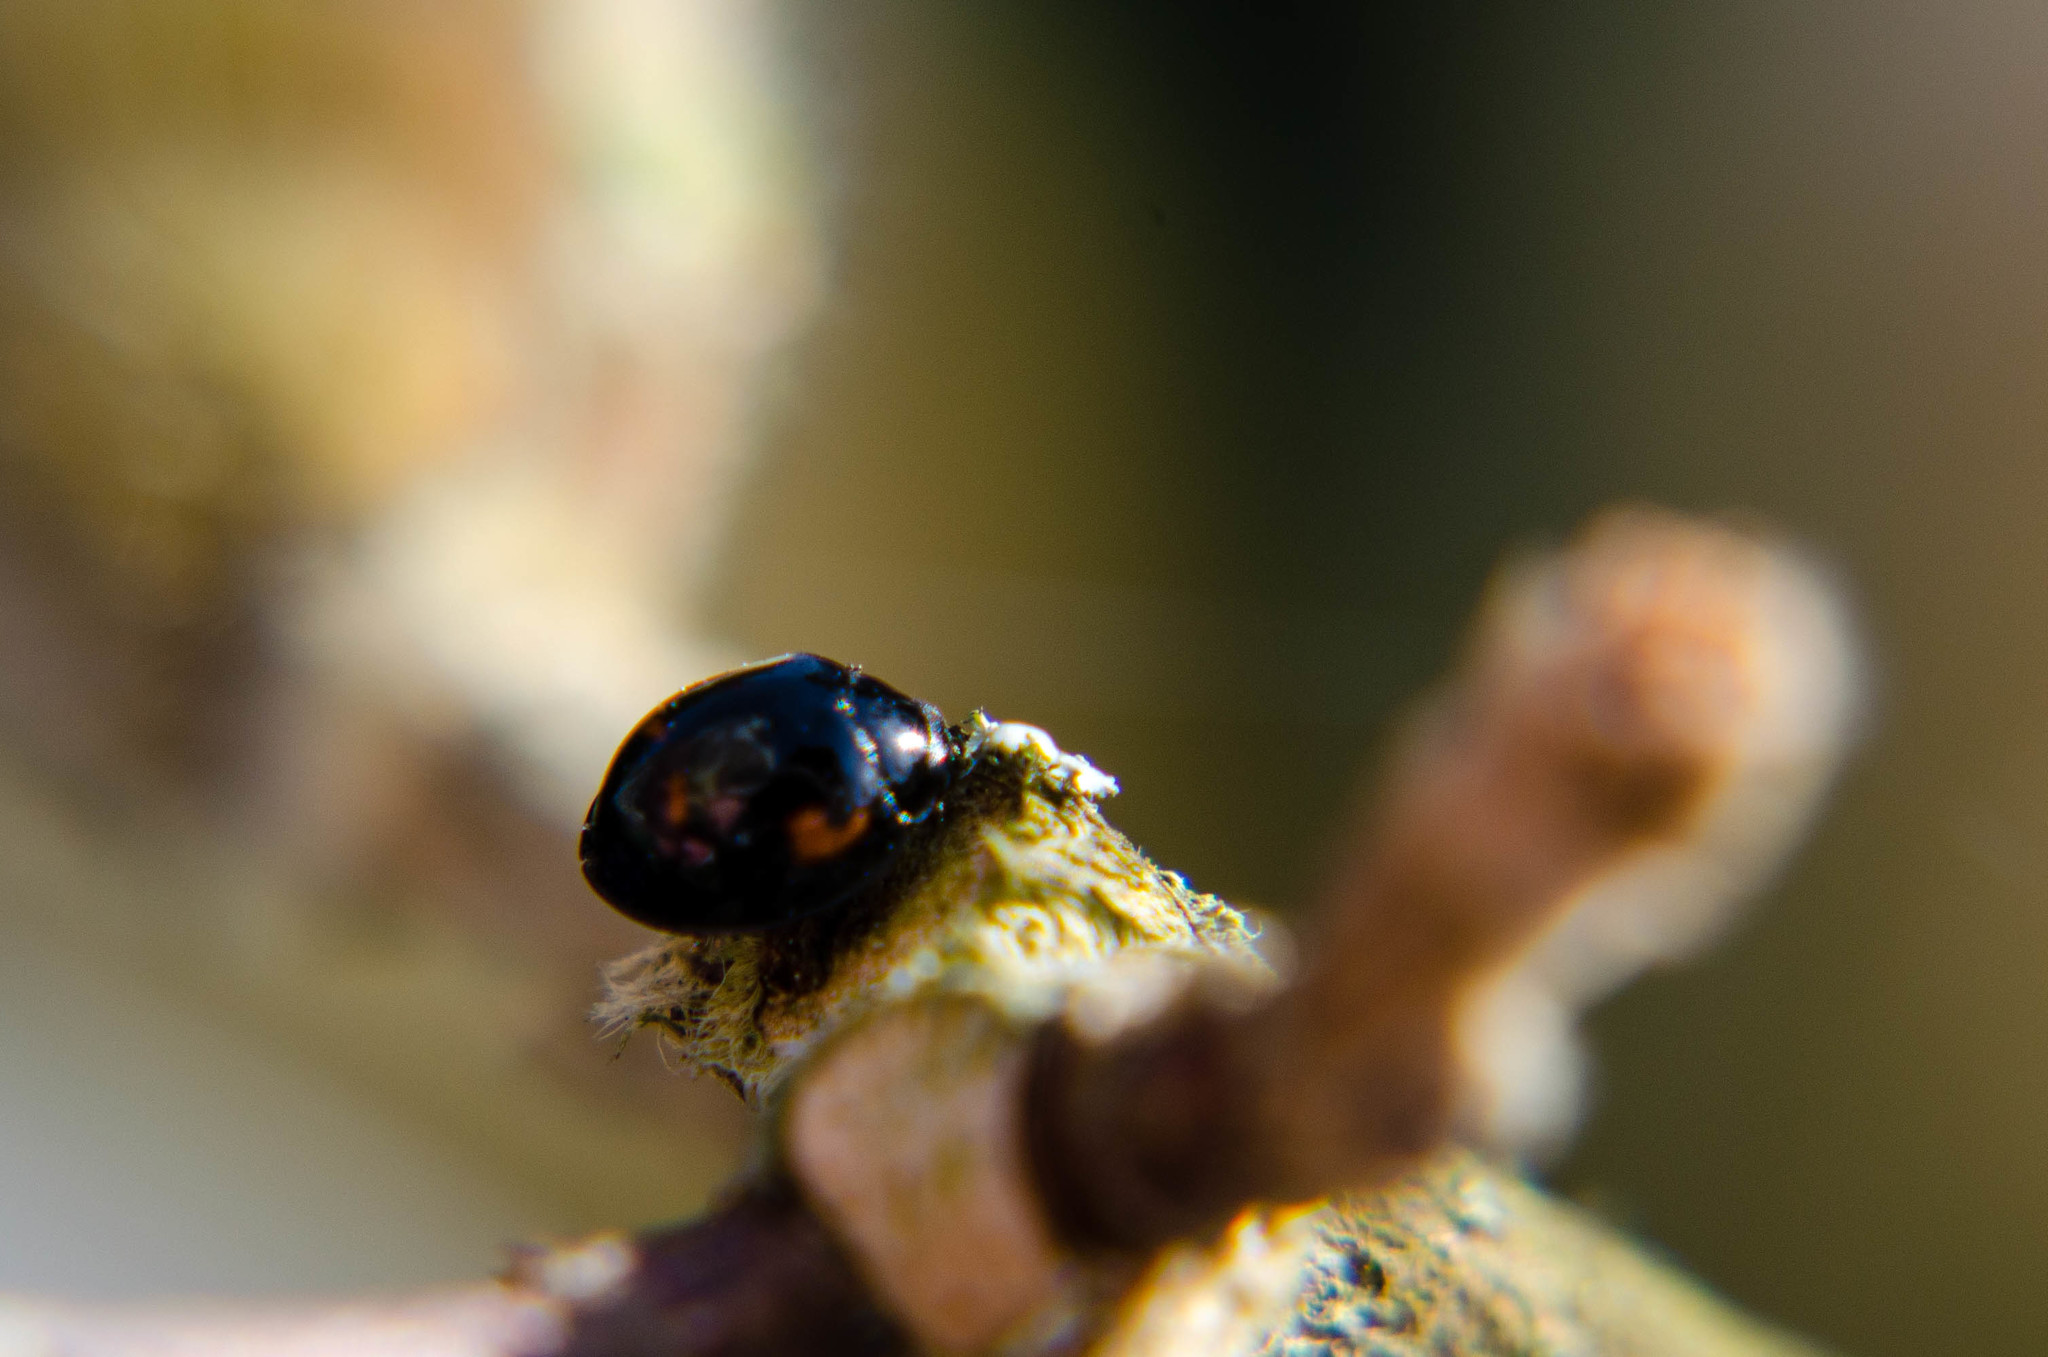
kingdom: Animalia
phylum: Arthropoda
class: Insecta
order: Coleoptera
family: Coccinellidae
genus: Brumus
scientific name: Brumus quadripustulatus
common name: Ladybird beetle
